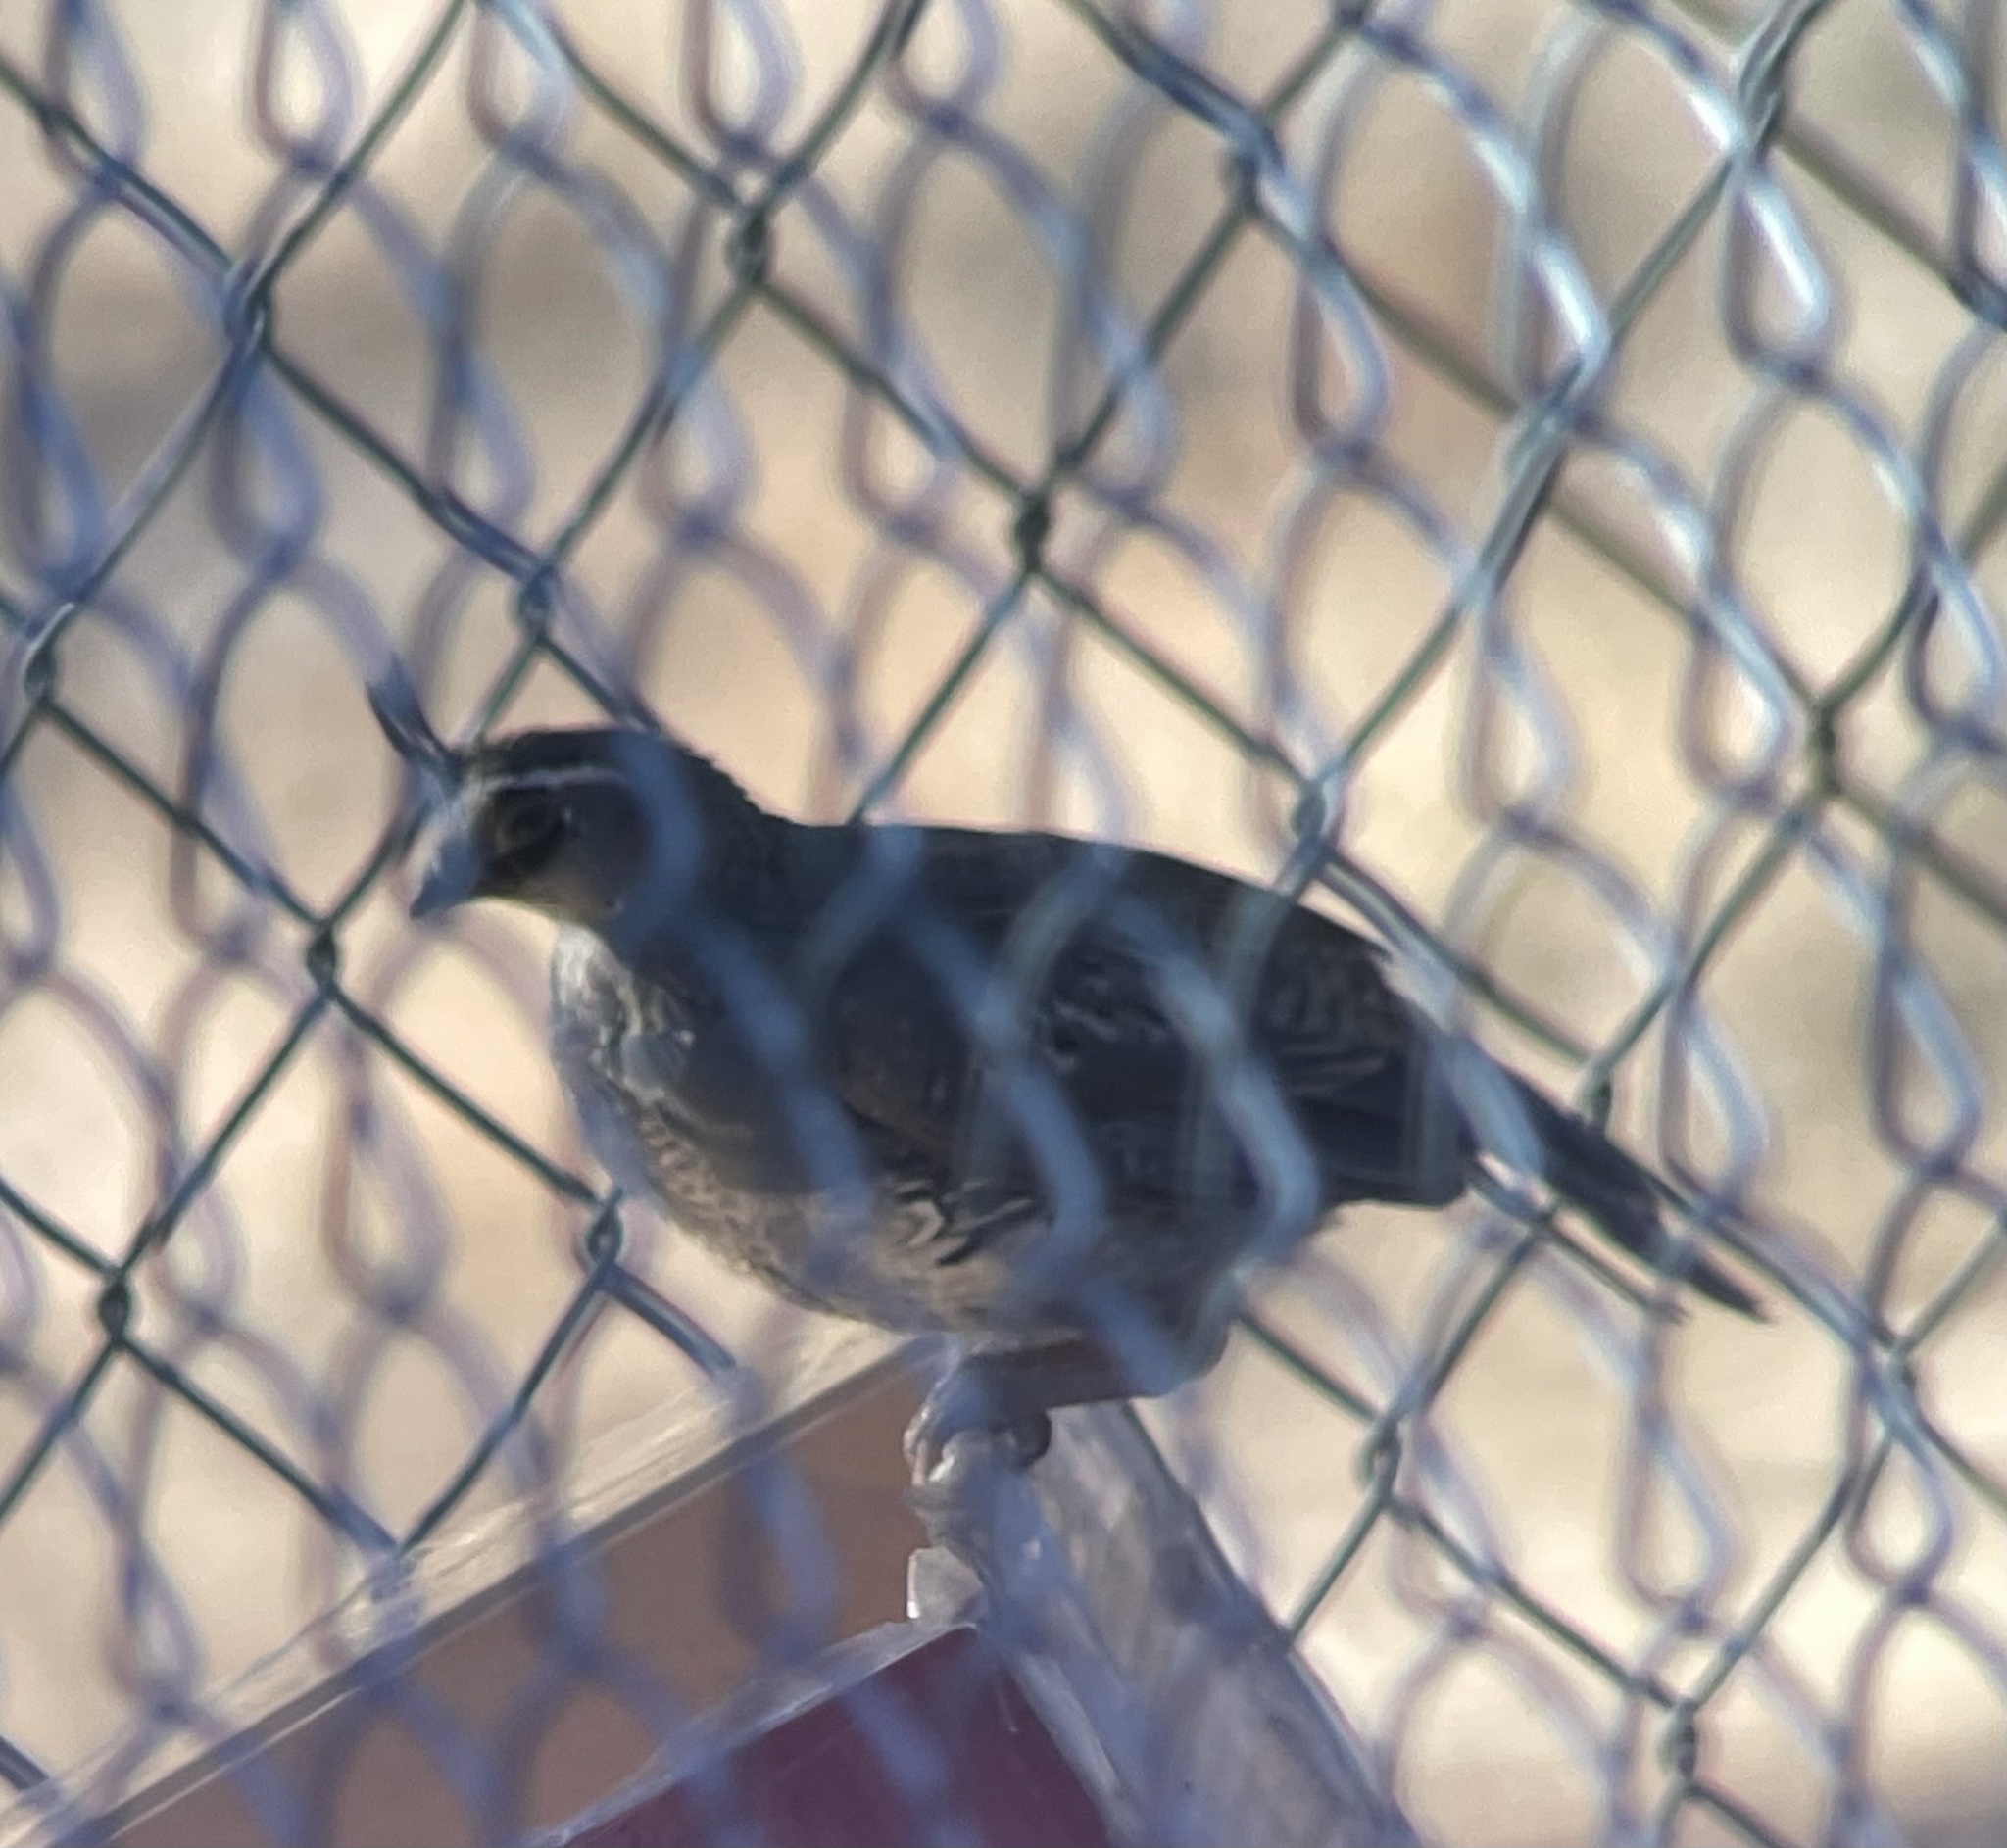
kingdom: Animalia
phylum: Chordata
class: Aves
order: Galliformes
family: Odontophoridae
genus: Callipepla
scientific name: Callipepla californica
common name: California quail
